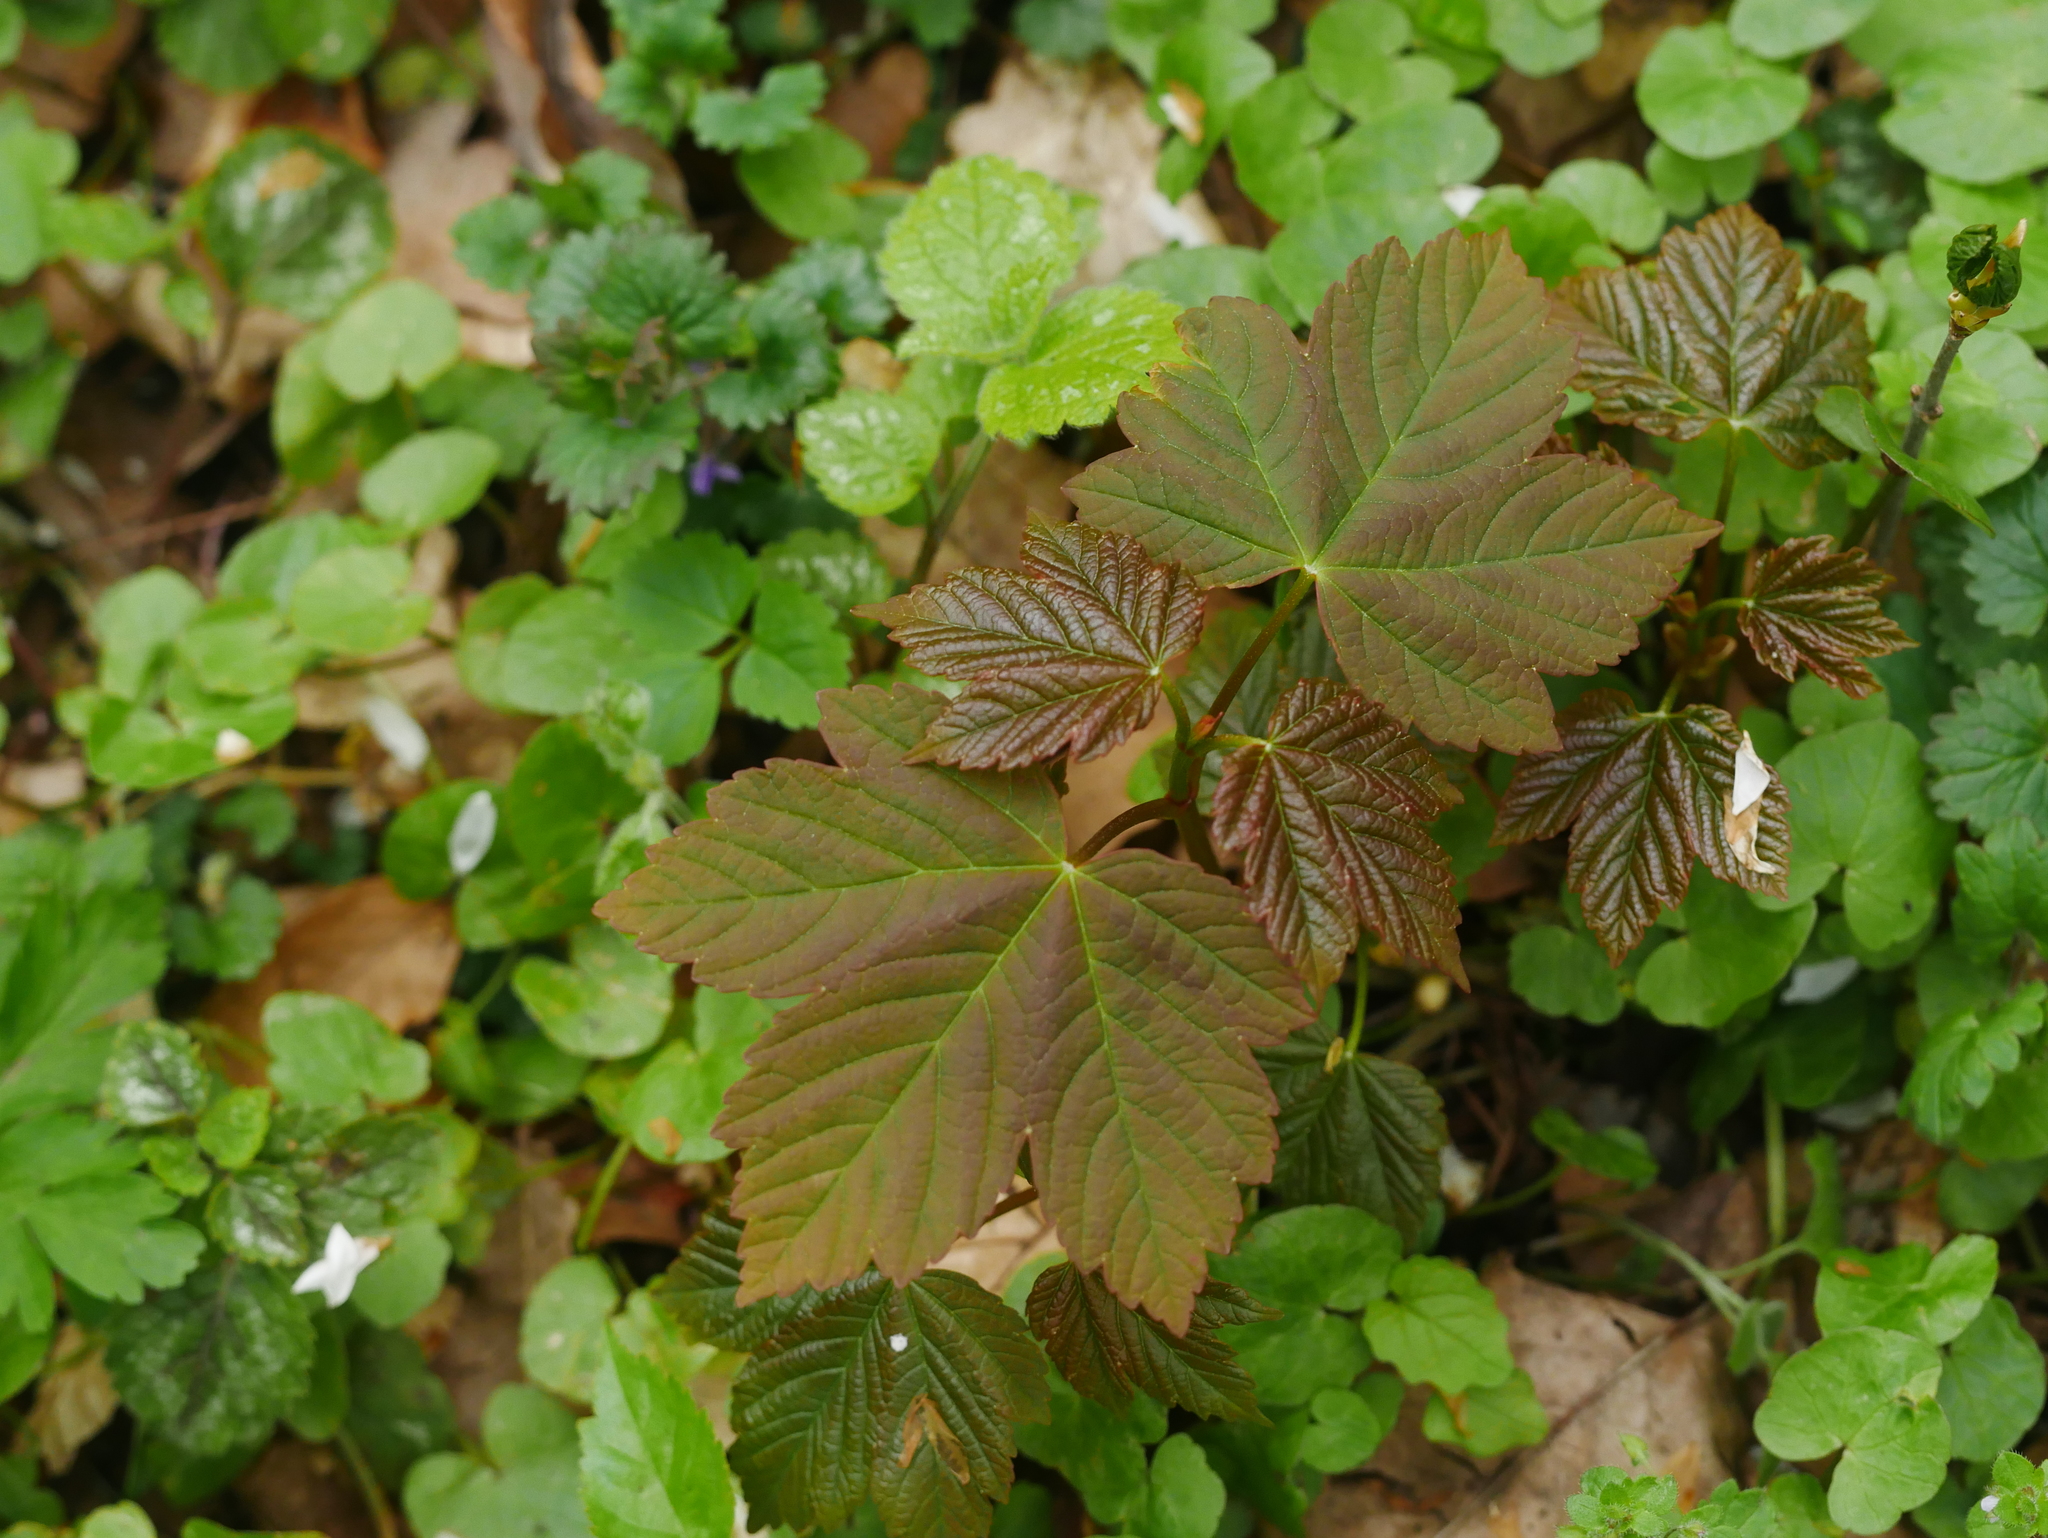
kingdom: Plantae
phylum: Tracheophyta
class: Magnoliopsida
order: Sapindales
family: Sapindaceae
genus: Acer
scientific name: Acer pseudoplatanus
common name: Sycamore
